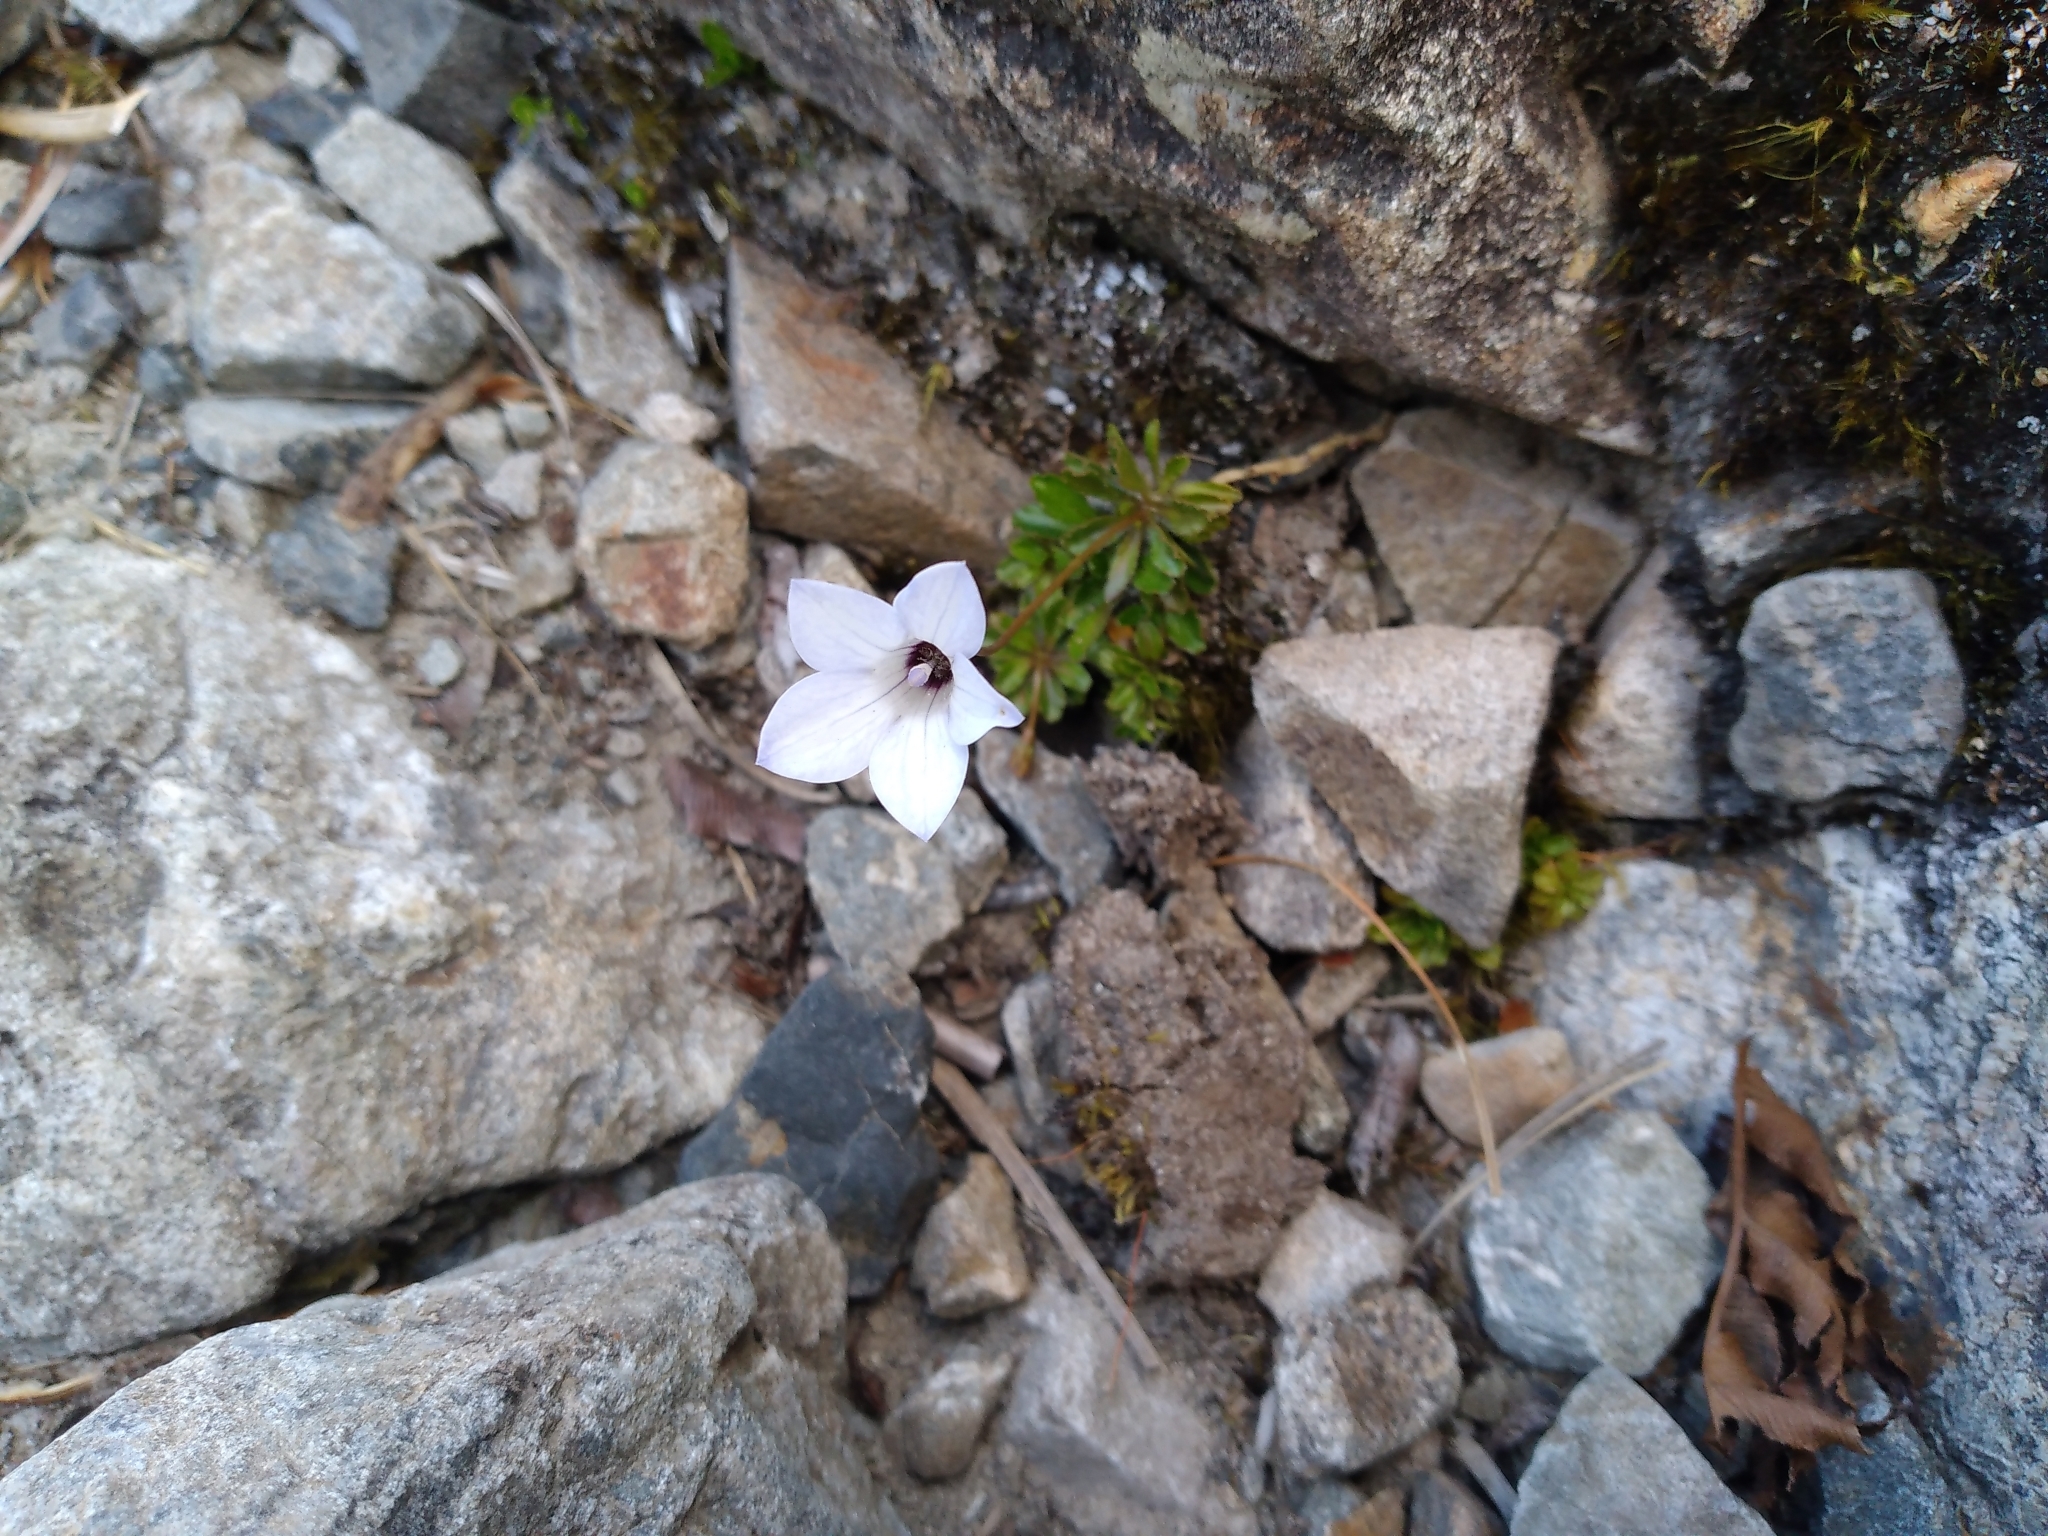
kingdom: Plantae
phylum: Tracheophyta
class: Magnoliopsida
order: Asterales
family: Campanulaceae
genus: Wahlenbergia
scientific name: Wahlenbergia albomarginata
